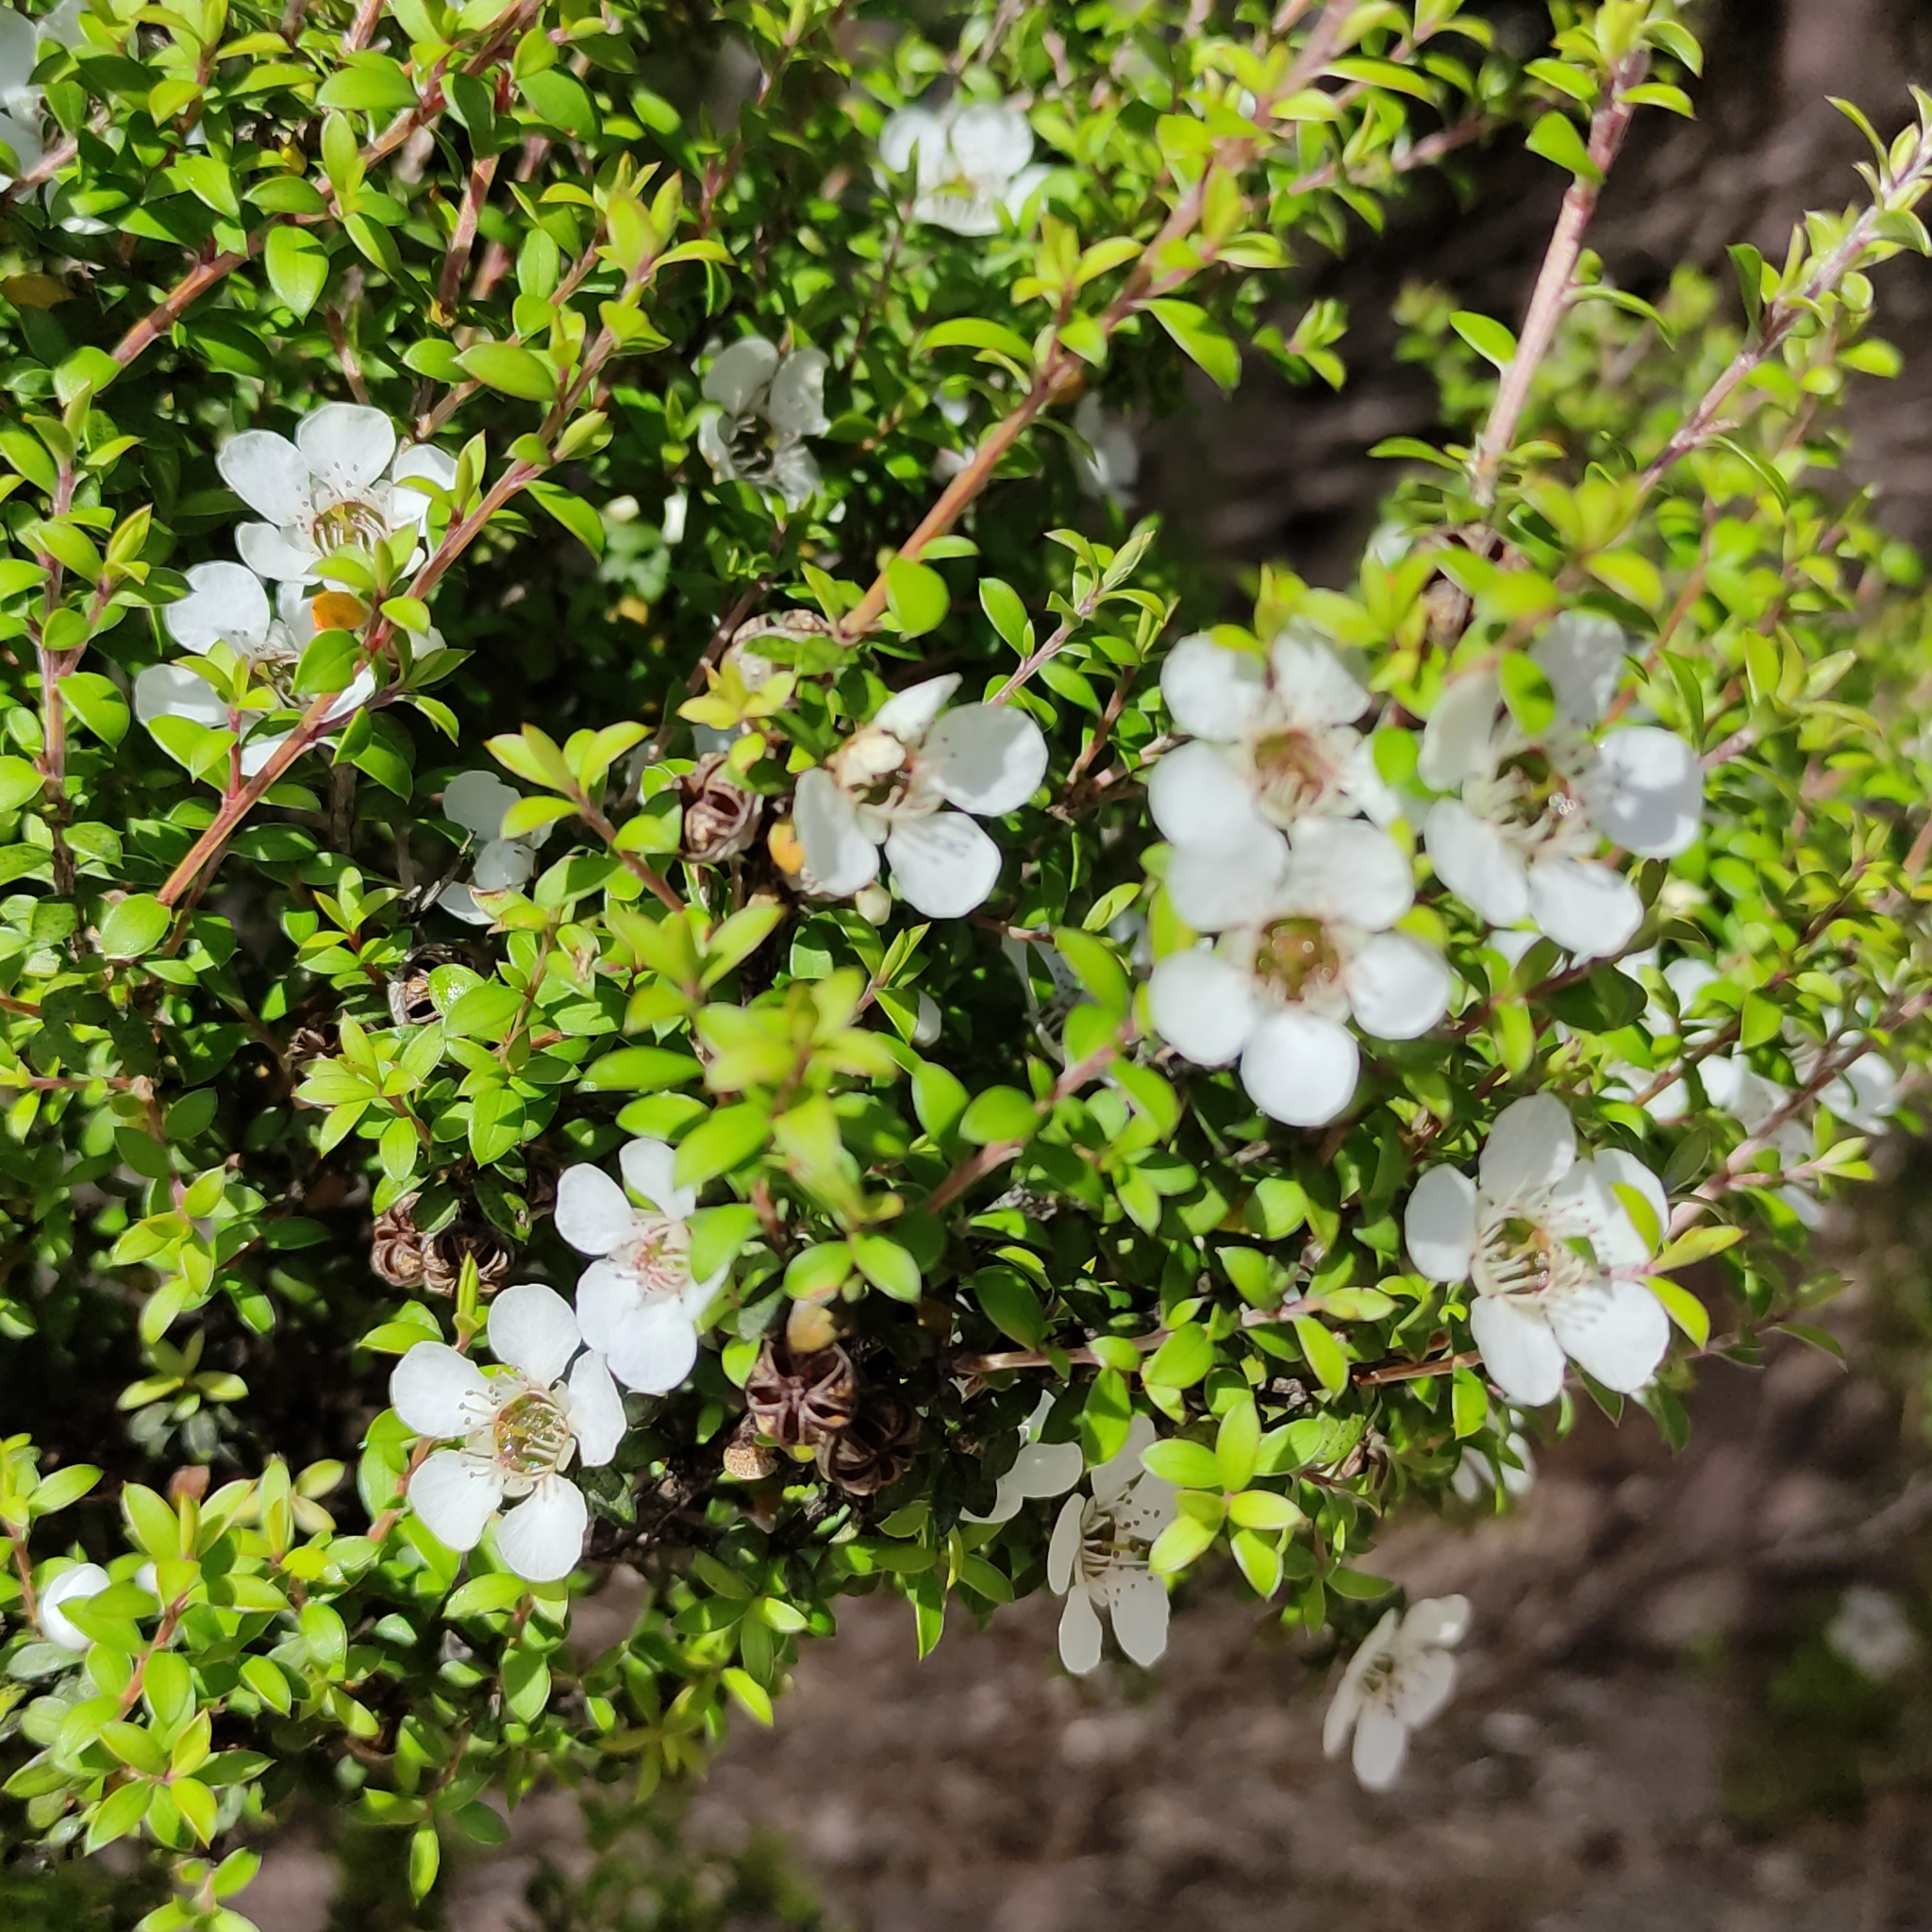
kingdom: Plantae
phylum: Tracheophyta
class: Magnoliopsida
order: Myrtales
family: Myrtaceae
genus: Leptospermum
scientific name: Leptospermum scoparium
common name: Broom tea-tree
